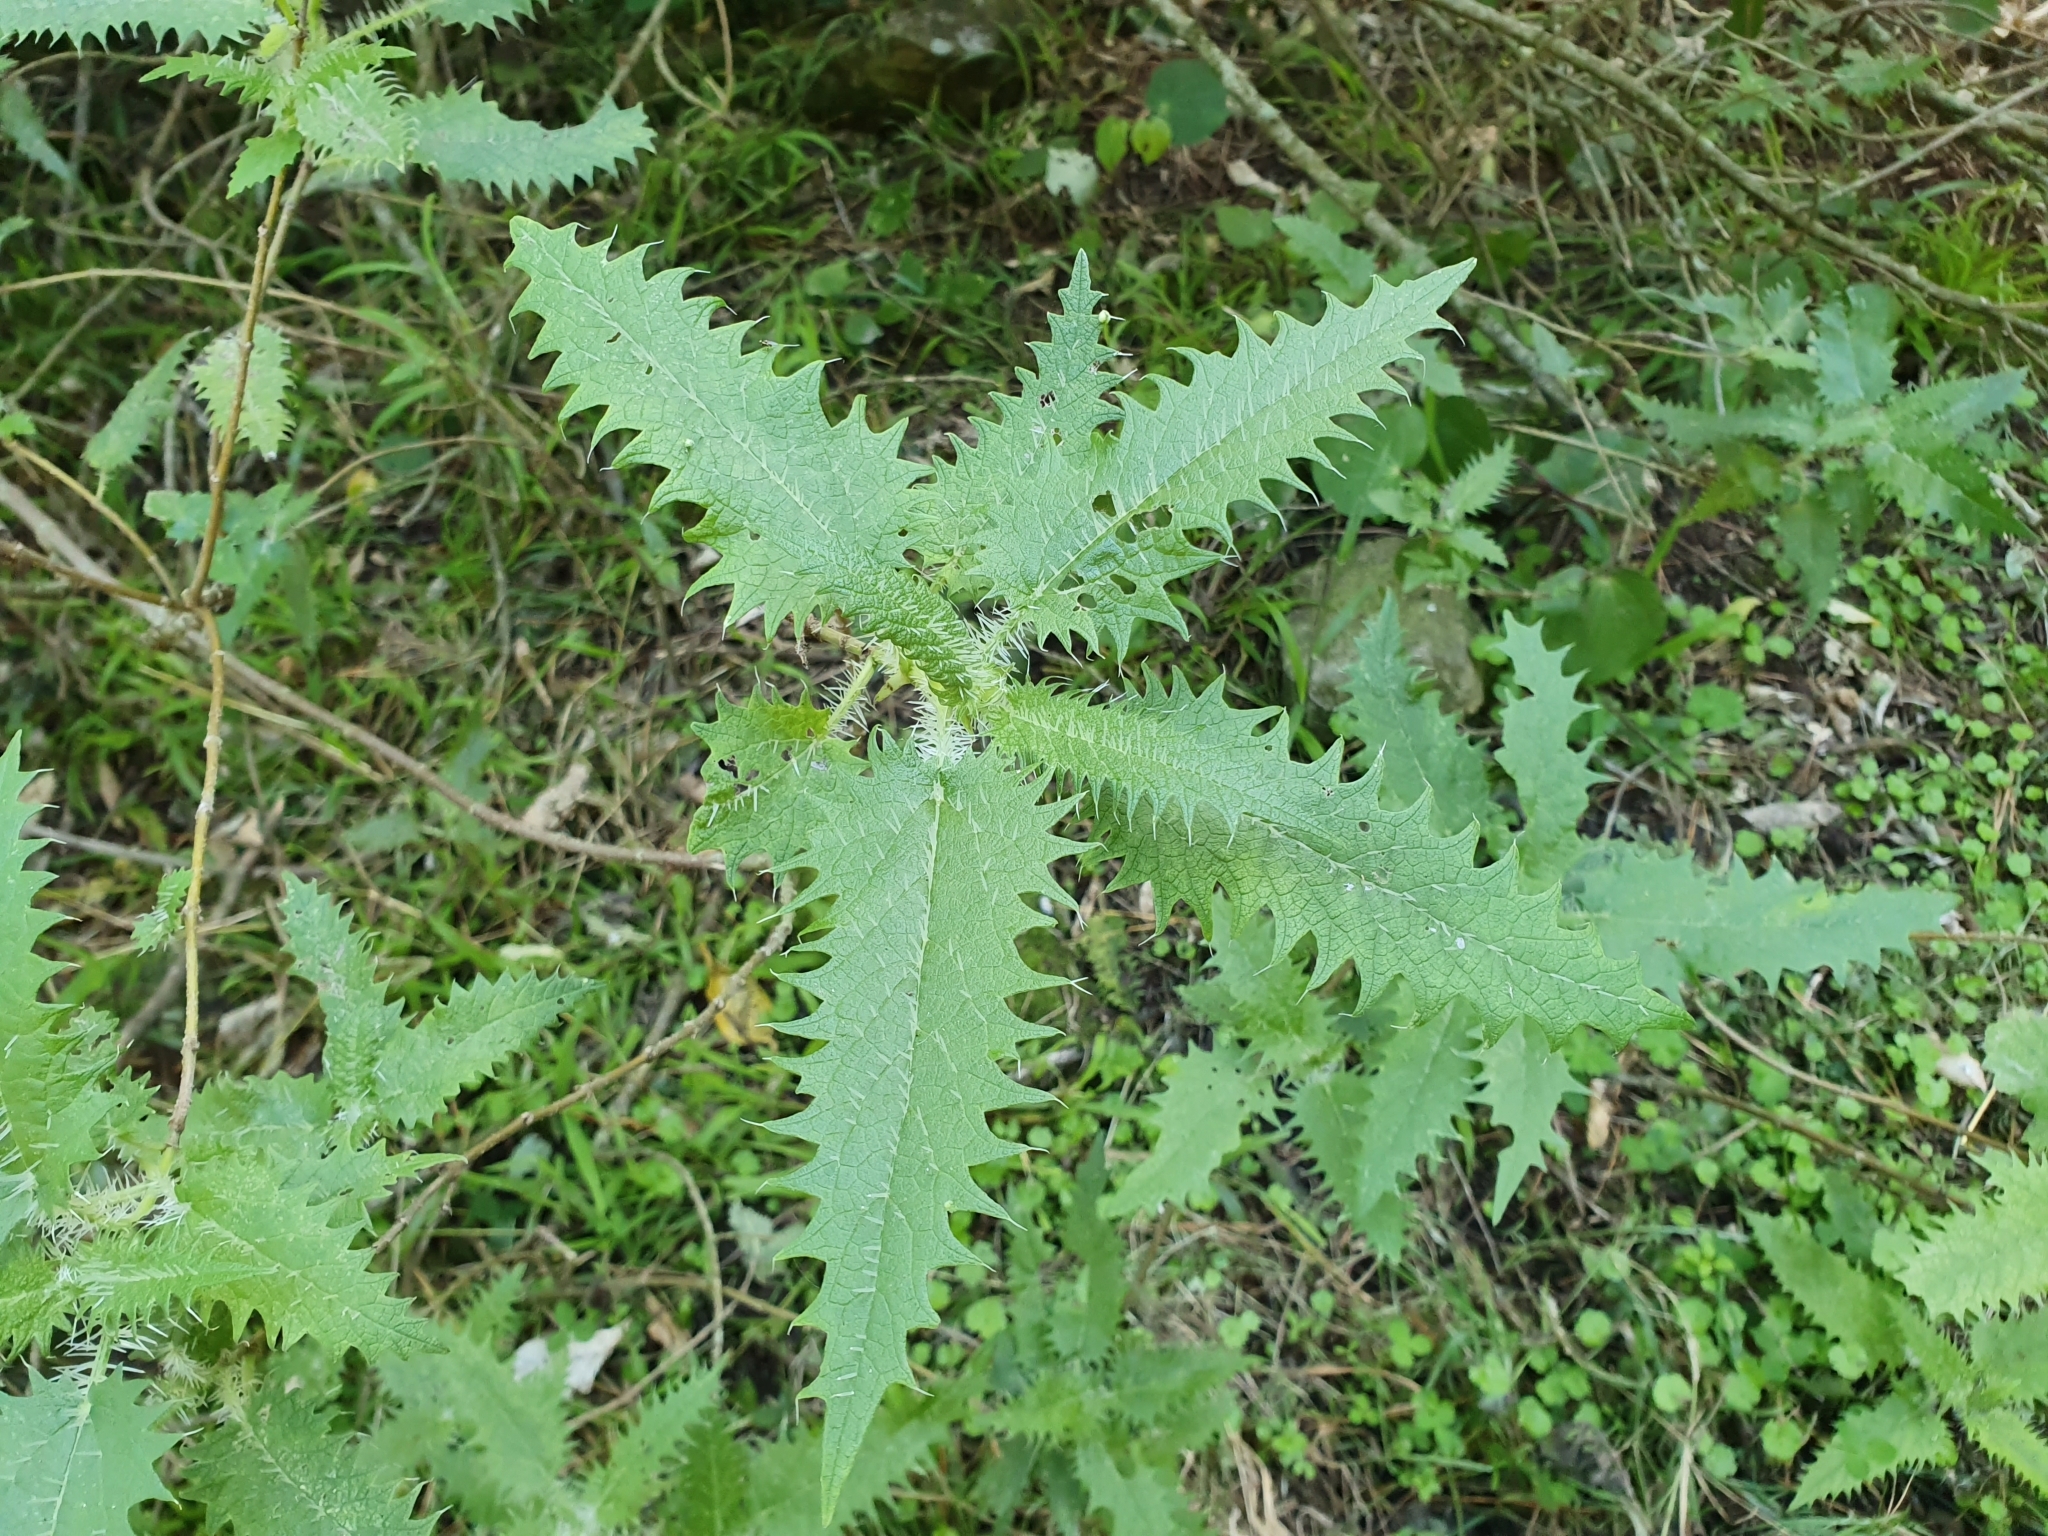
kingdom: Plantae
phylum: Tracheophyta
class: Magnoliopsida
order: Rosales
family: Urticaceae
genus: Urtica
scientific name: Urtica ferox
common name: Tree nettle
